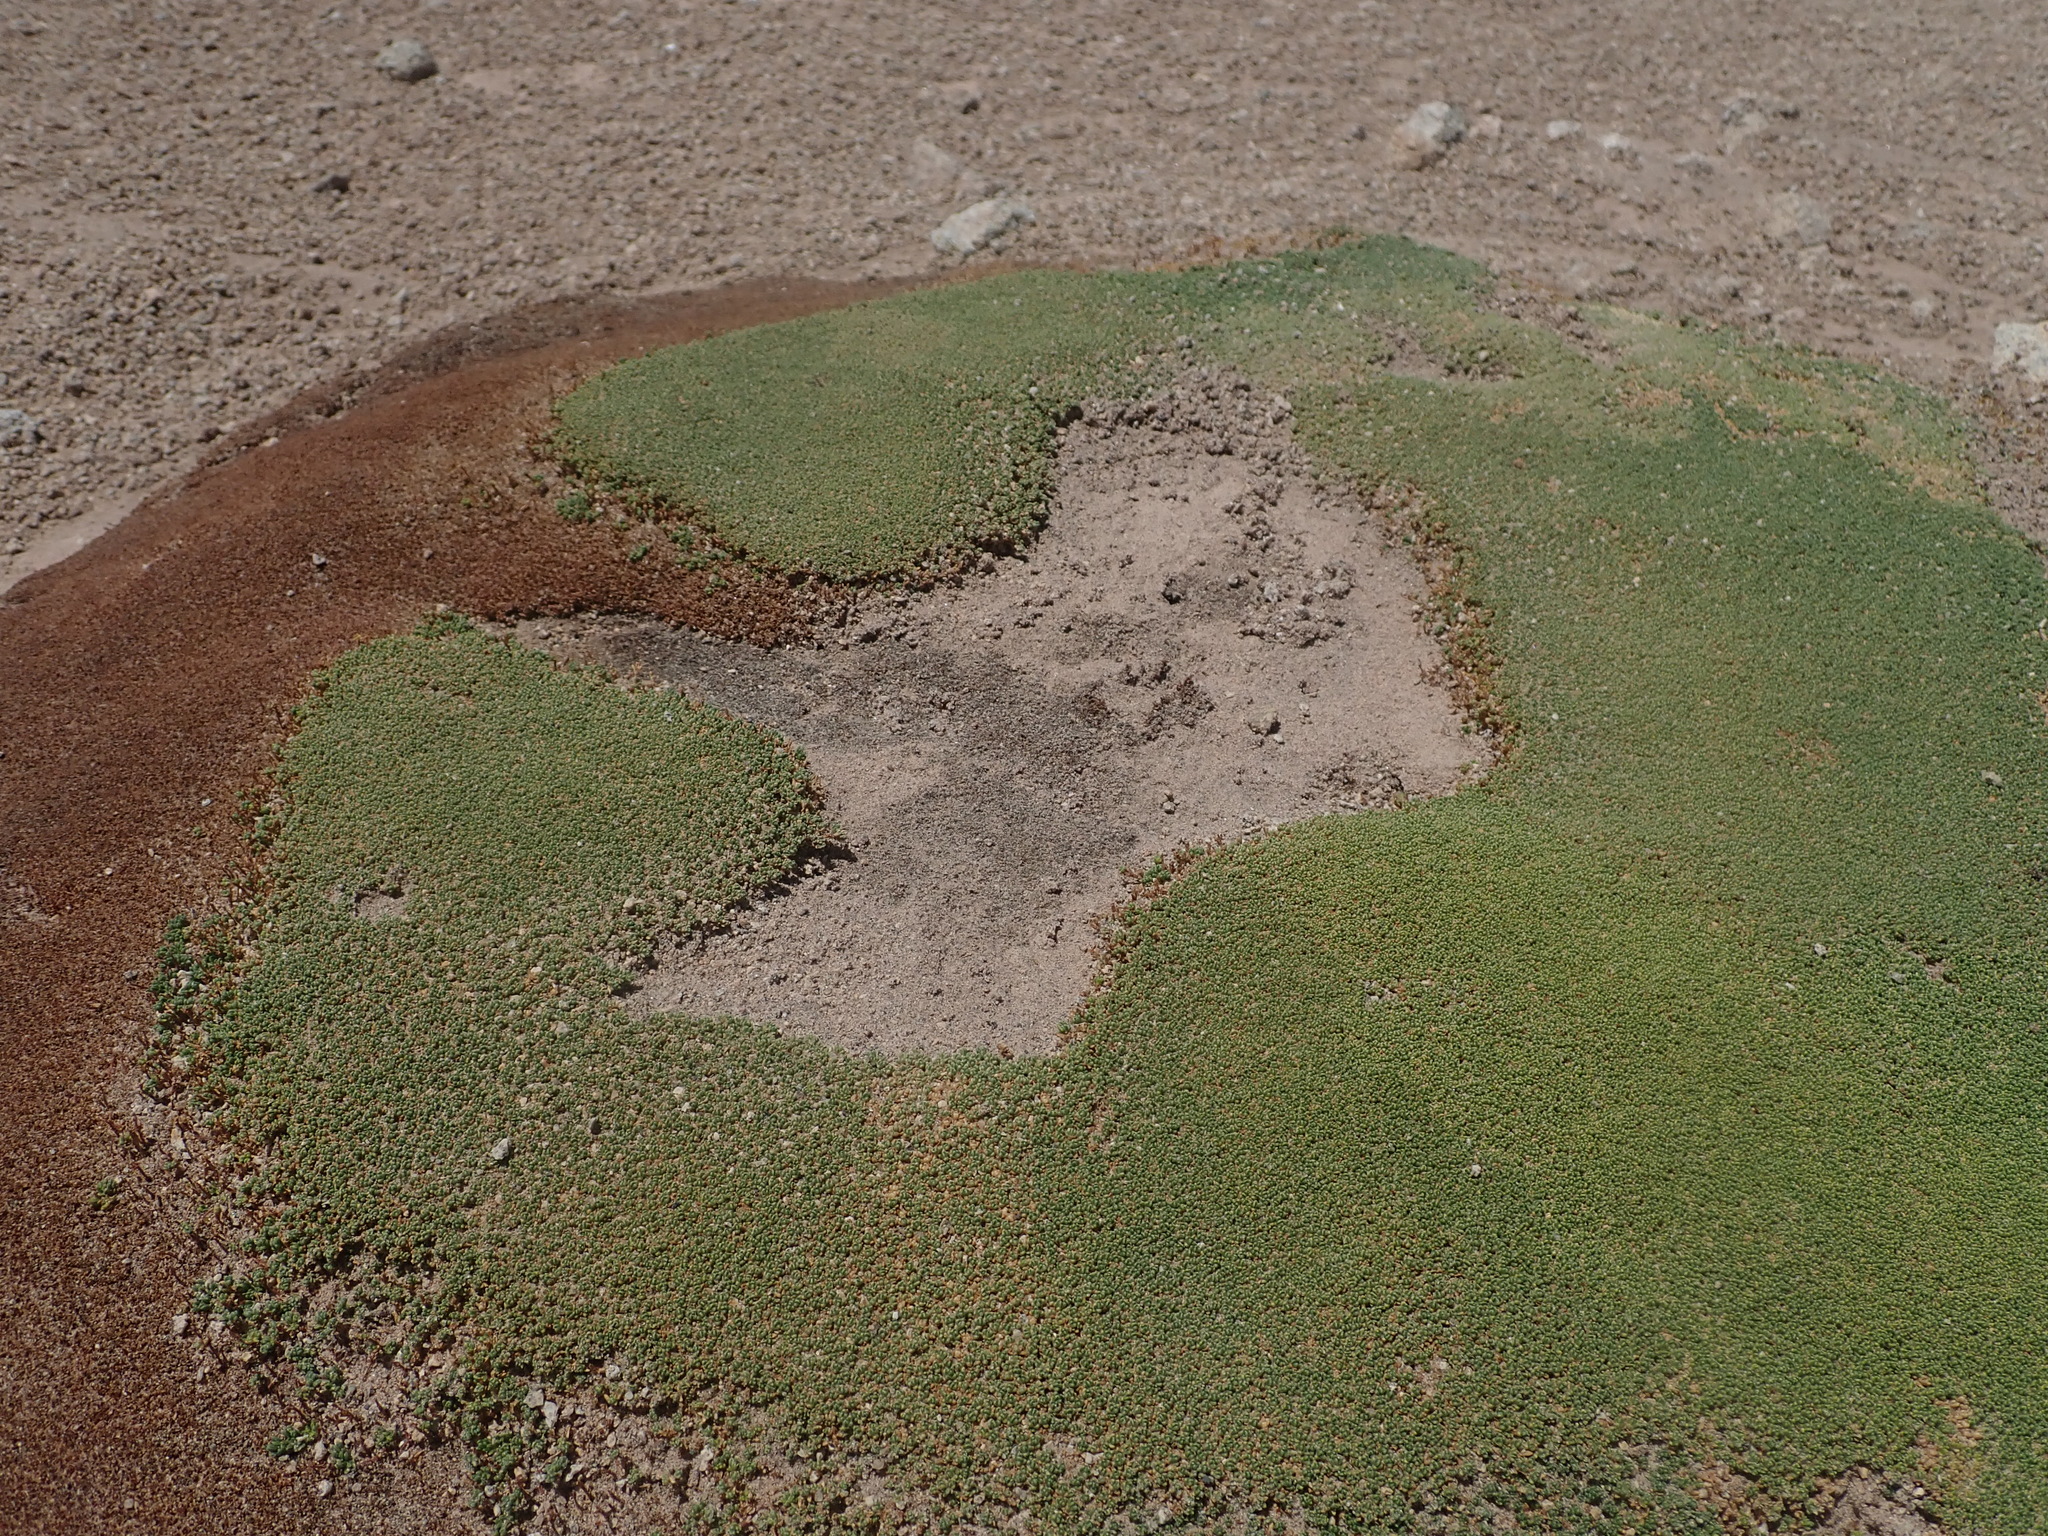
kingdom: Plantae
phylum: Tracheophyta
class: Magnoliopsida
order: Caryophyllales
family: Frankeniaceae
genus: Frankenia
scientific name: Frankenia triandra
